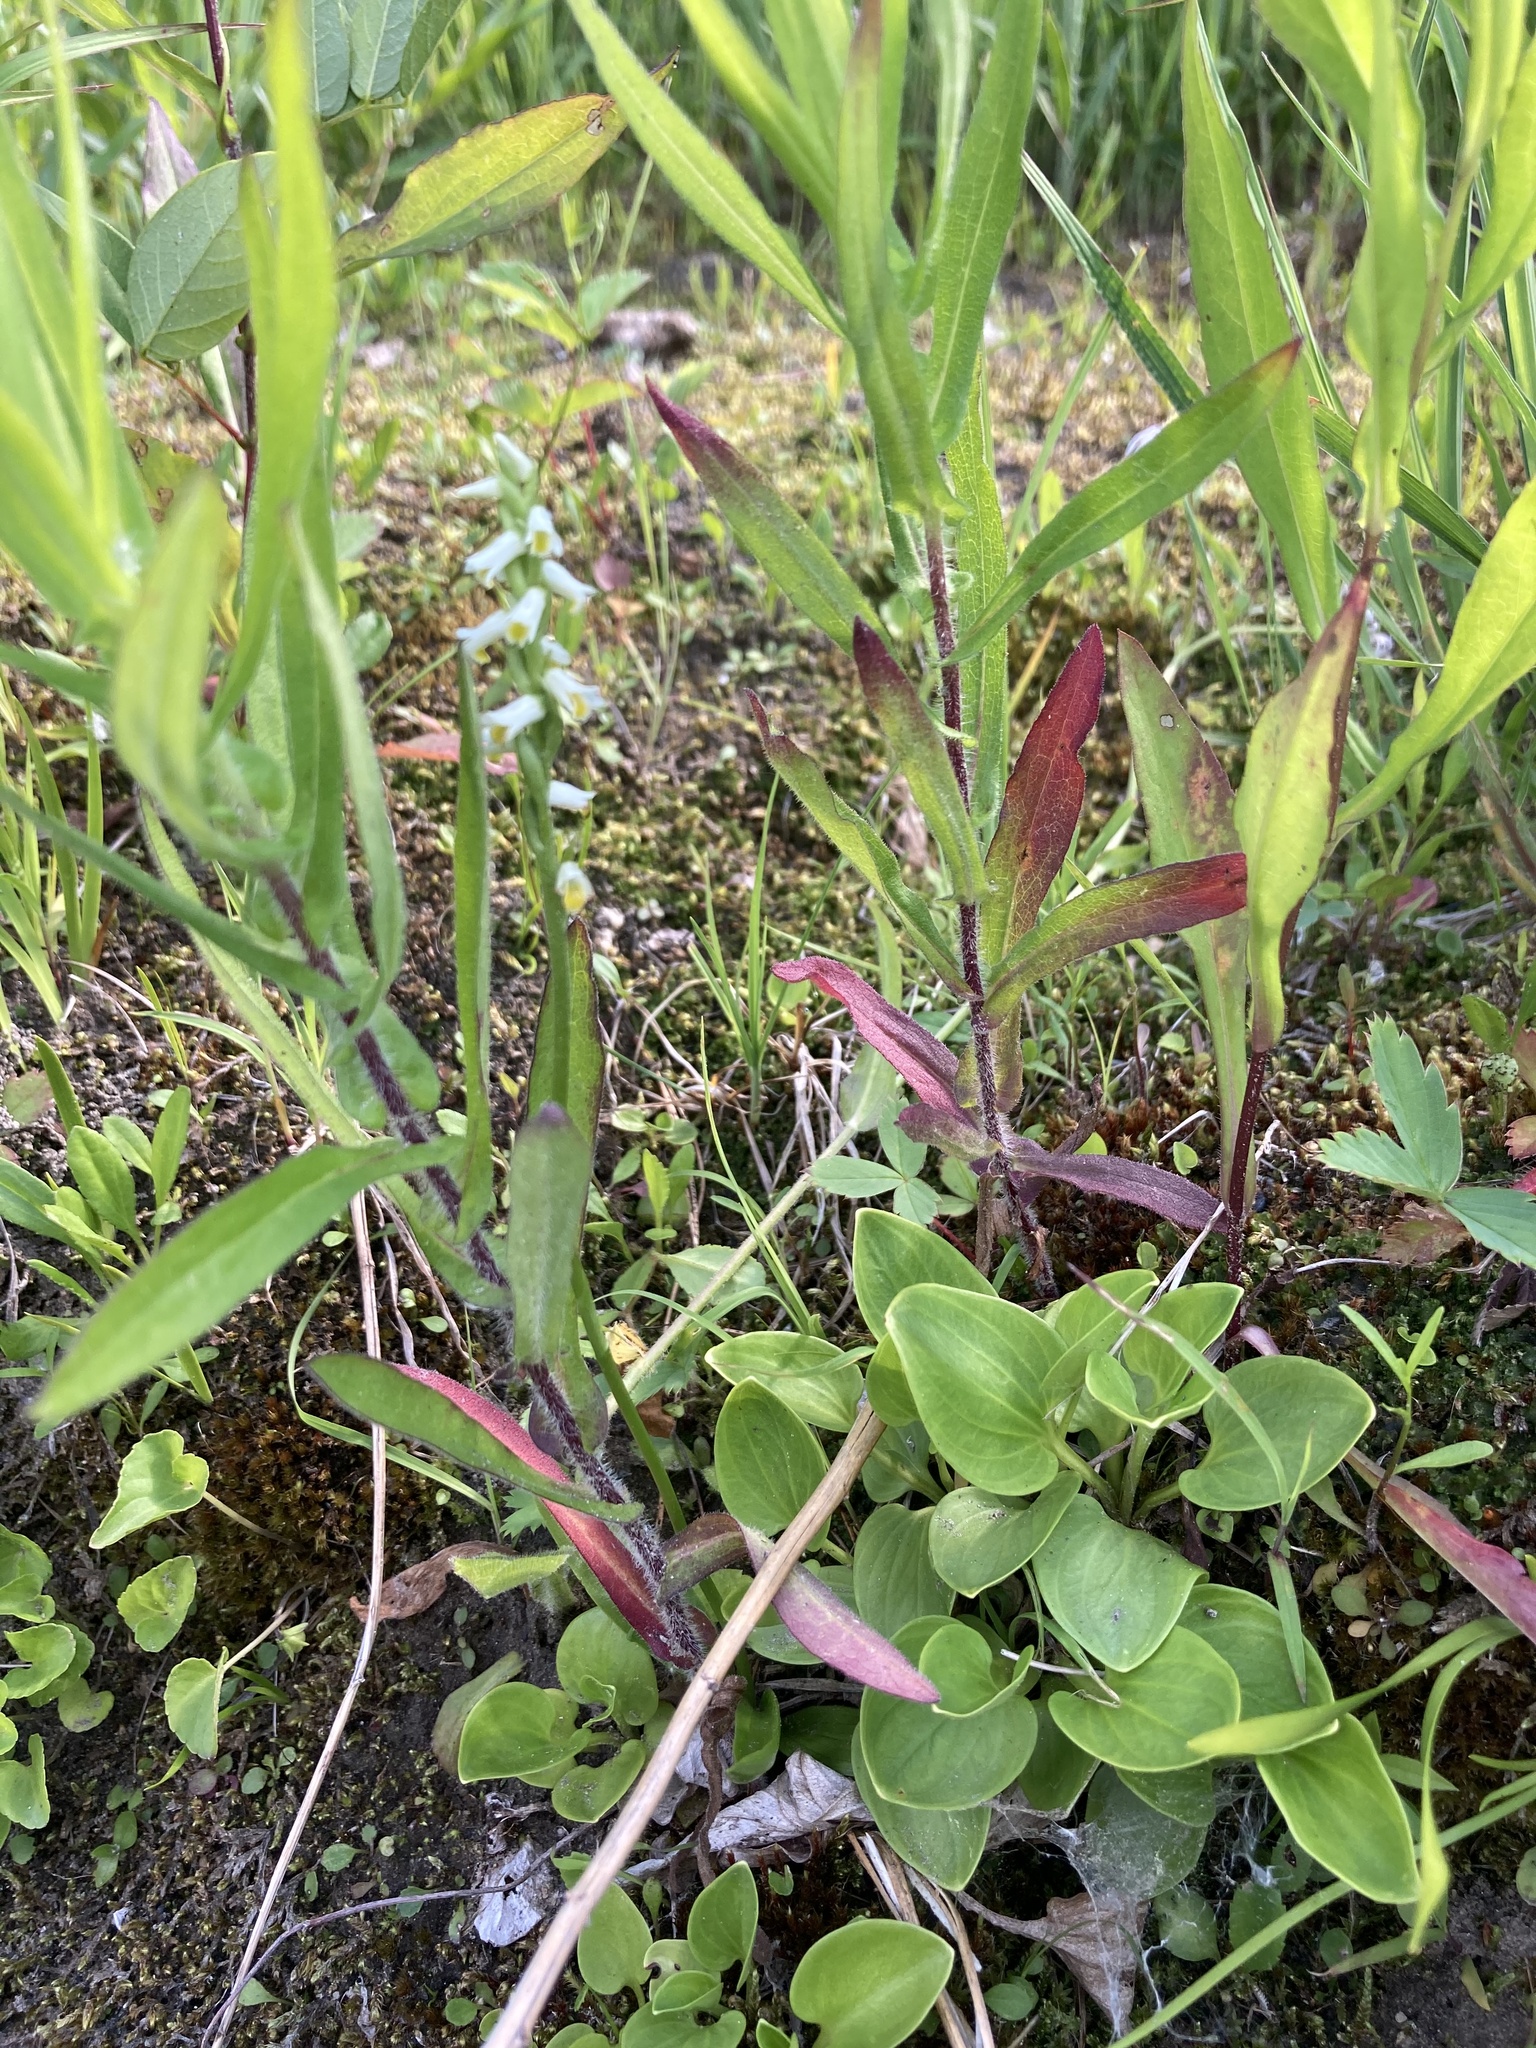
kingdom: Plantae
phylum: Tracheophyta
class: Magnoliopsida
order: Celastrales
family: Parnassiaceae
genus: Parnassia
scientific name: Parnassia glauca
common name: American grass-of-parnassus
